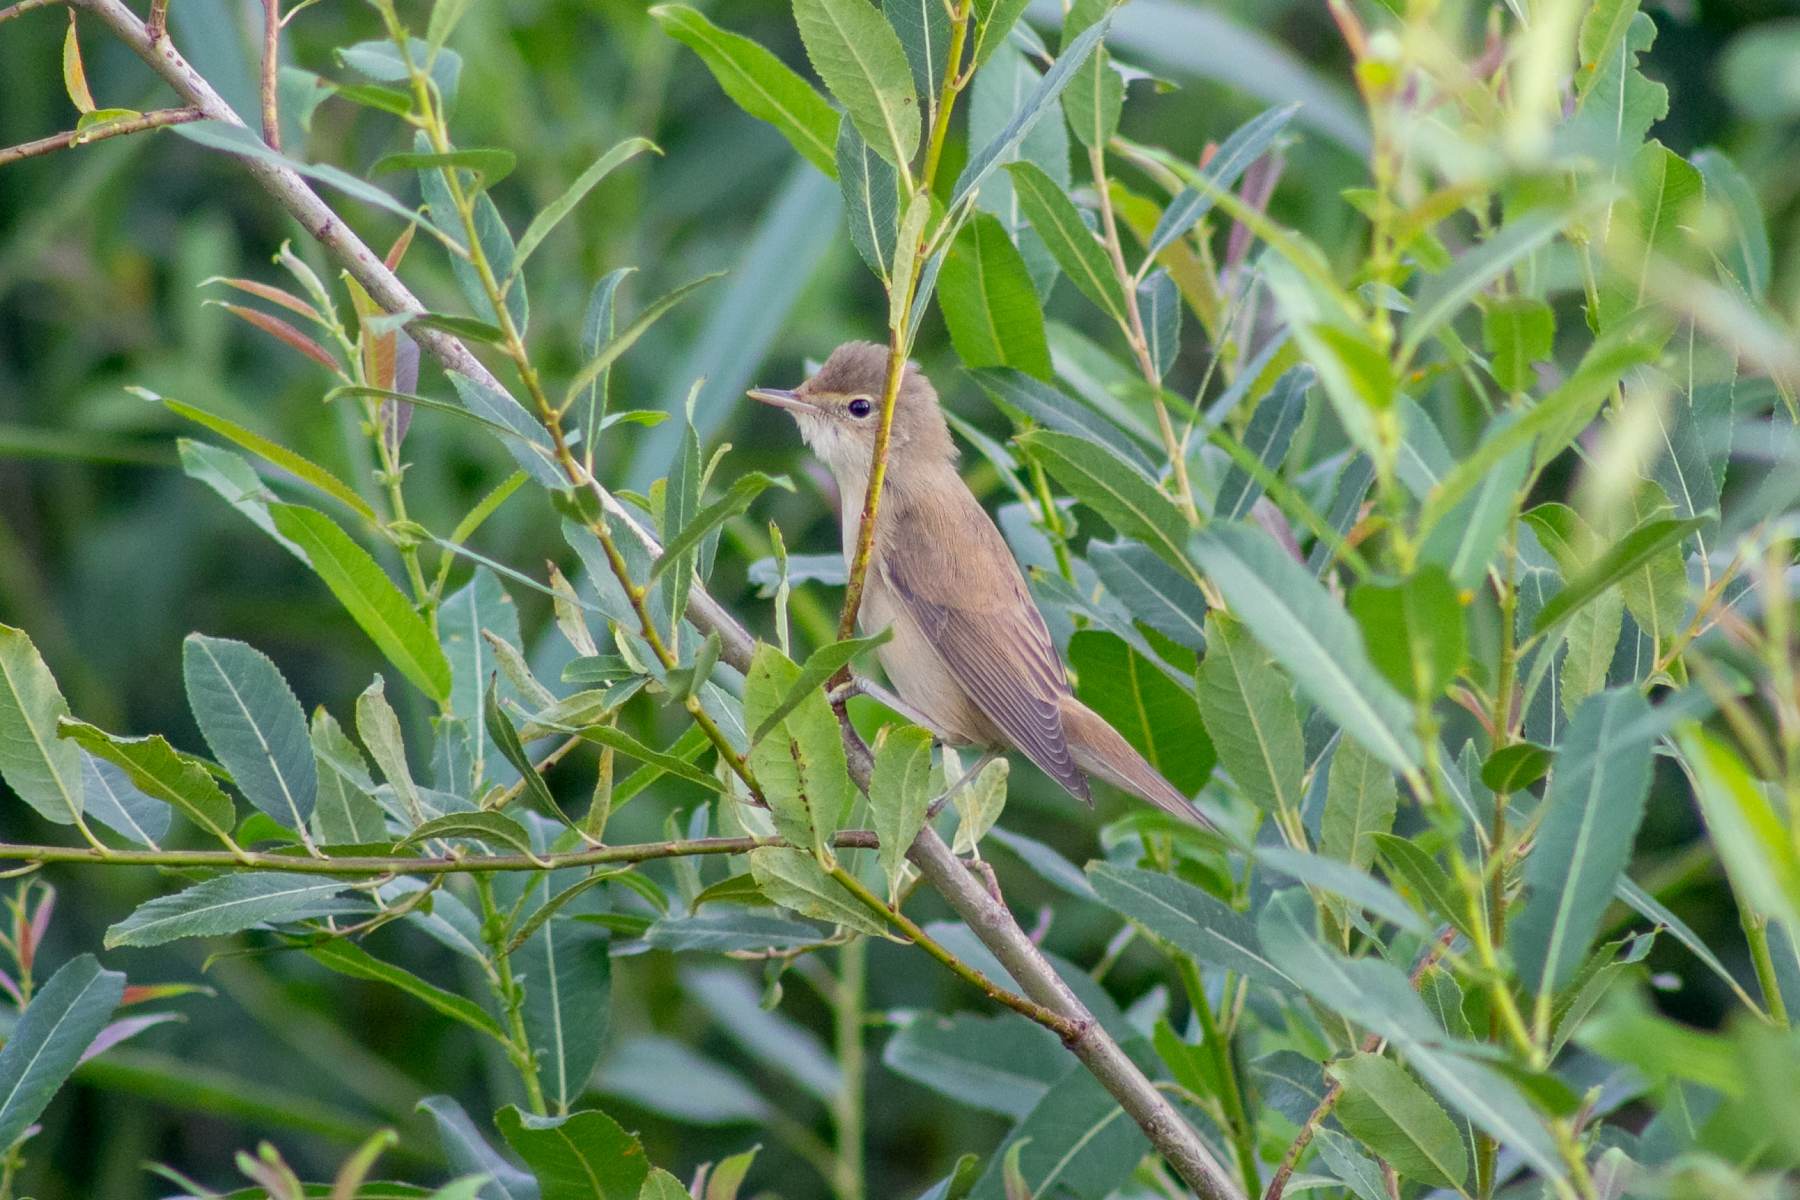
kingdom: Animalia
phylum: Chordata
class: Aves
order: Passeriformes
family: Acrocephalidae
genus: Acrocephalus
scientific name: Acrocephalus palustris
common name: Marsh warbler
